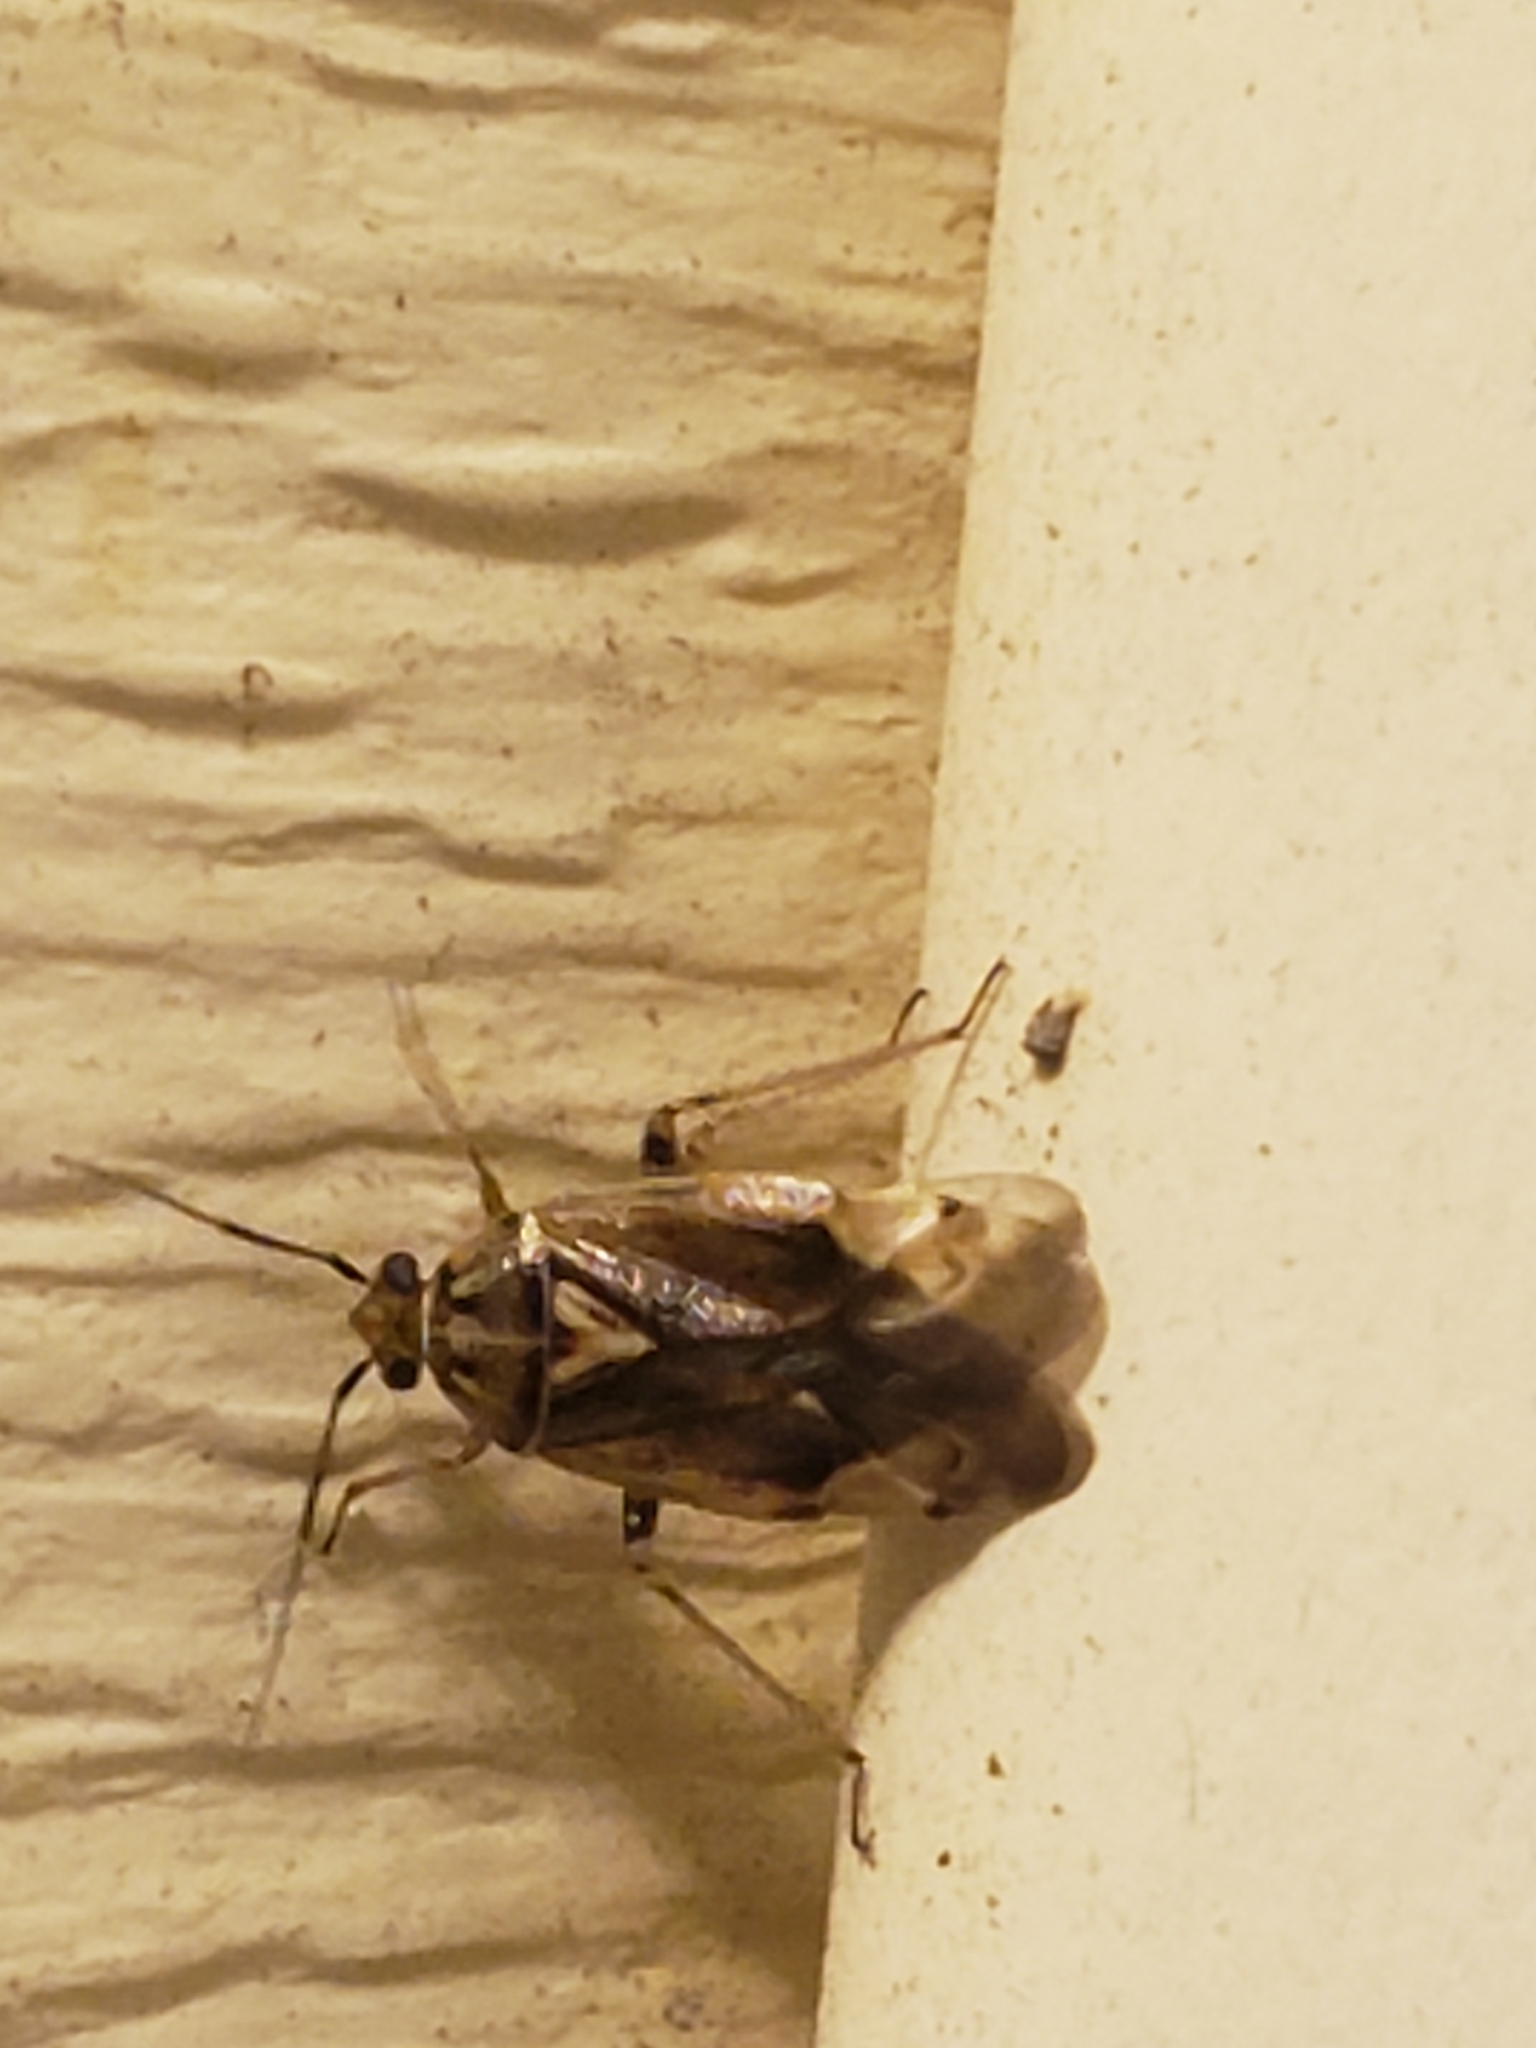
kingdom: Animalia
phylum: Arthropoda
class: Insecta
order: Hemiptera
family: Miridae
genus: Lygus
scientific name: Lygus lineolaris
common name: North american tarnished plant bug
